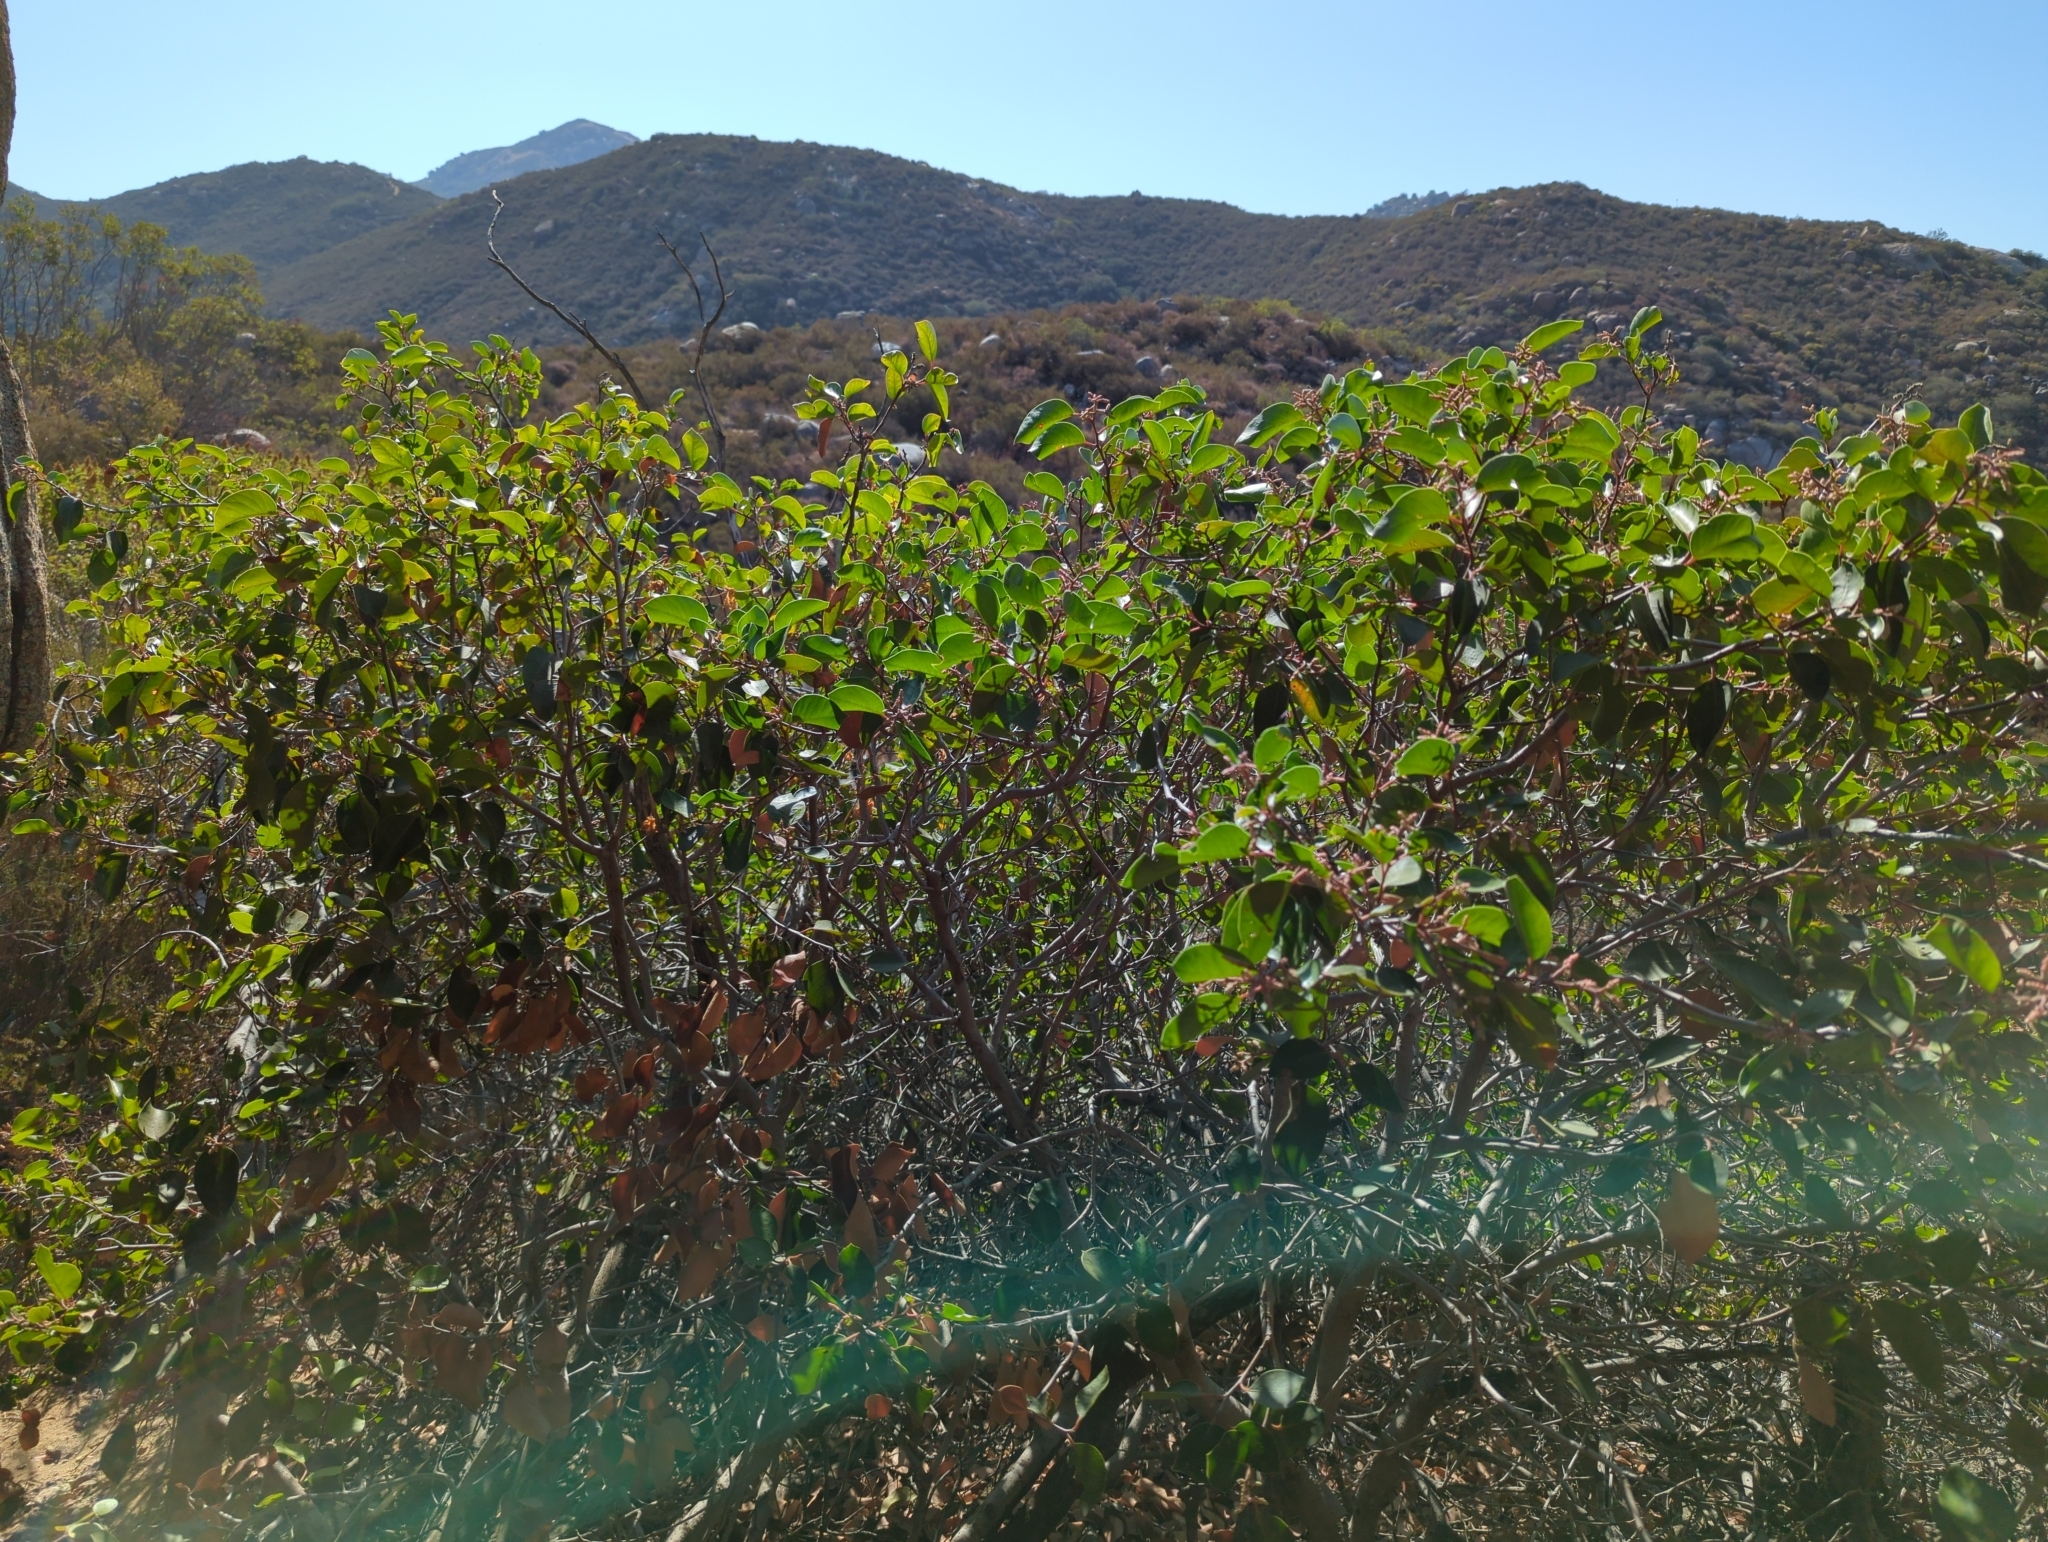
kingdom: Plantae
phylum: Tracheophyta
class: Magnoliopsida
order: Sapindales
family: Anacardiaceae
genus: Rhus
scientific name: Rhus ovata
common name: Sugar sumac
